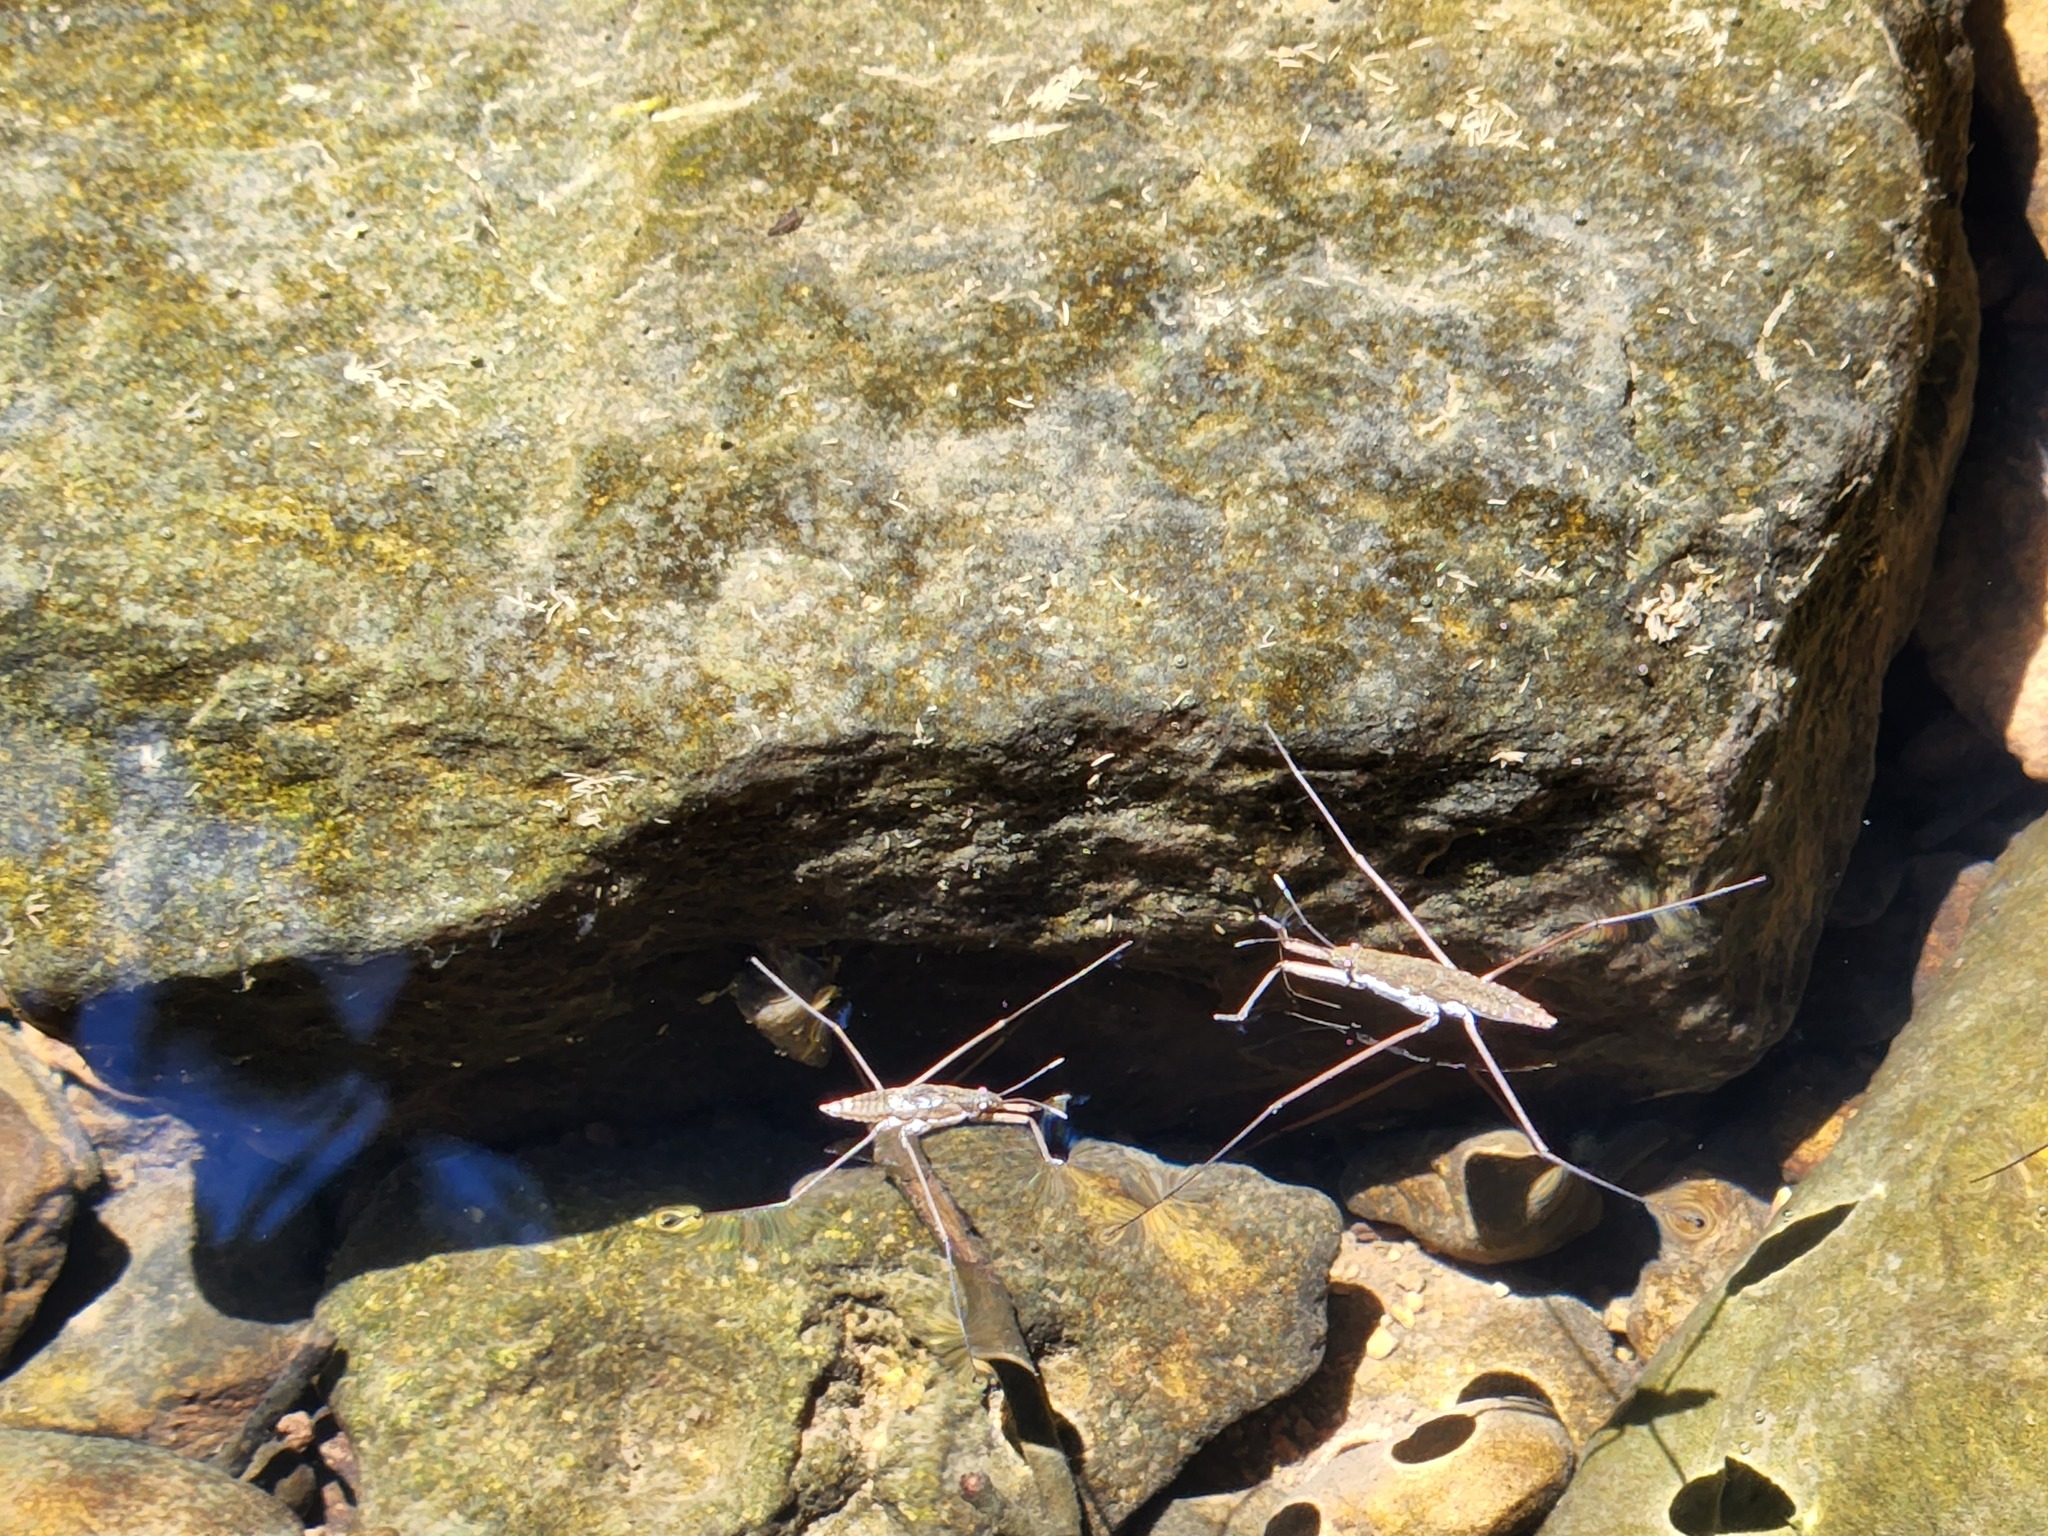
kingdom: Animalia
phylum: Arthropoda
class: Insecta
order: Hemiptera
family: Gerridae
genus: Aquarius
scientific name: Aquarius
